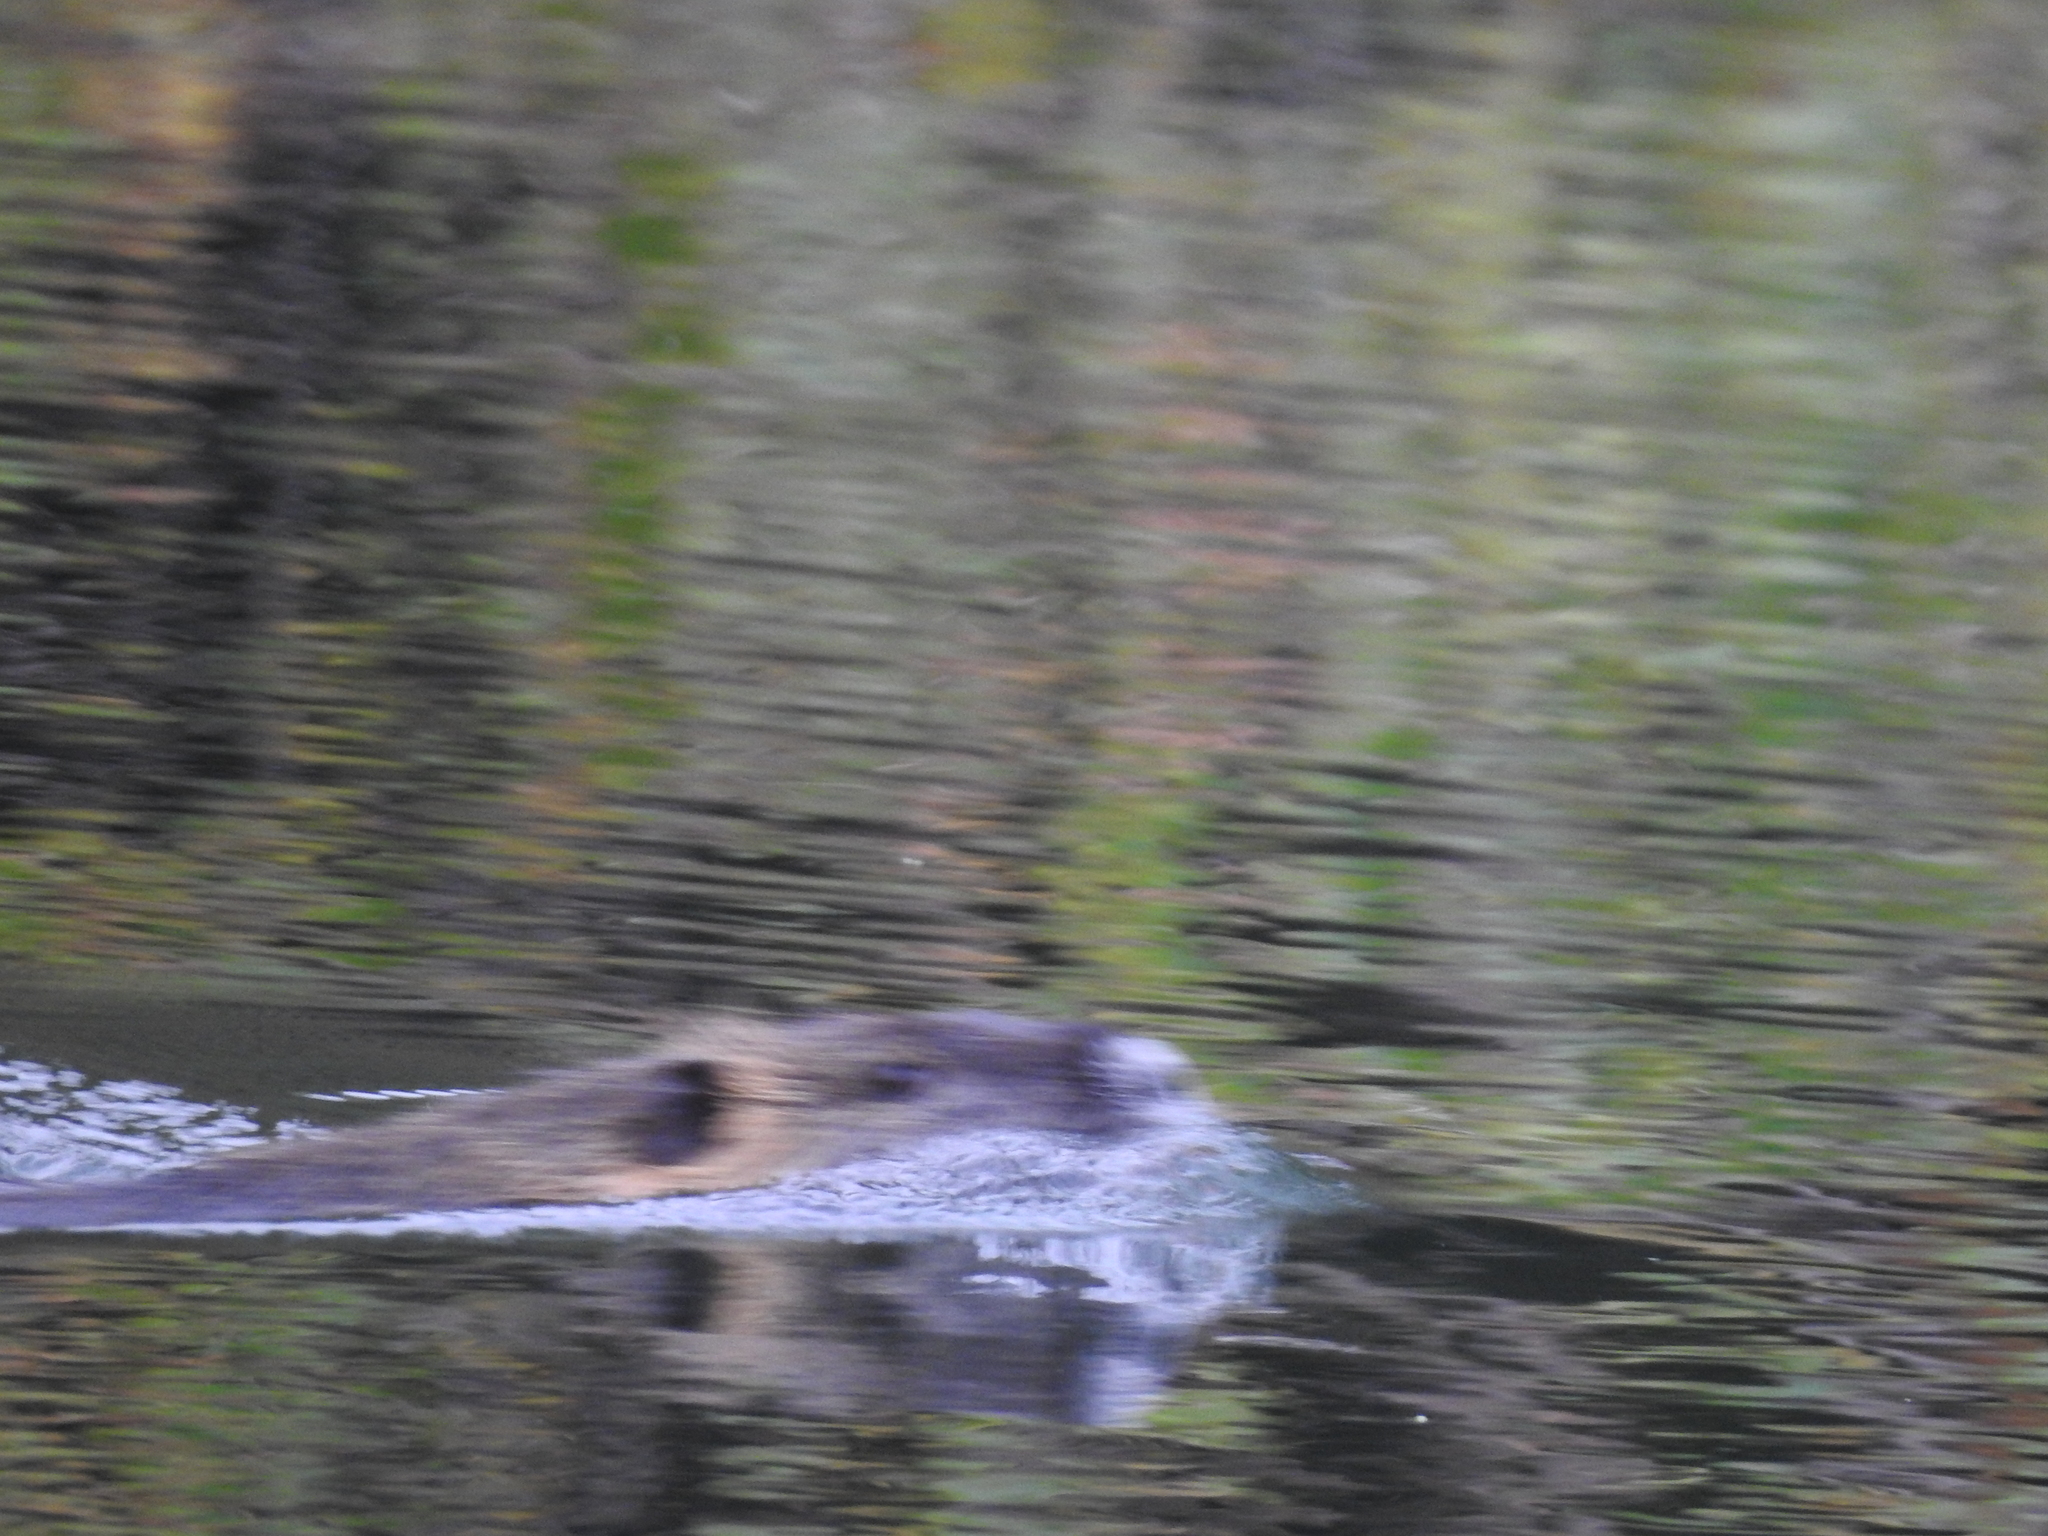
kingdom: Animalia
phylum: Chordata
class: Mammalia
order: Rodentia
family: Myocastoridae
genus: Myocastor
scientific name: Myocastor coypus
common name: Coypu
